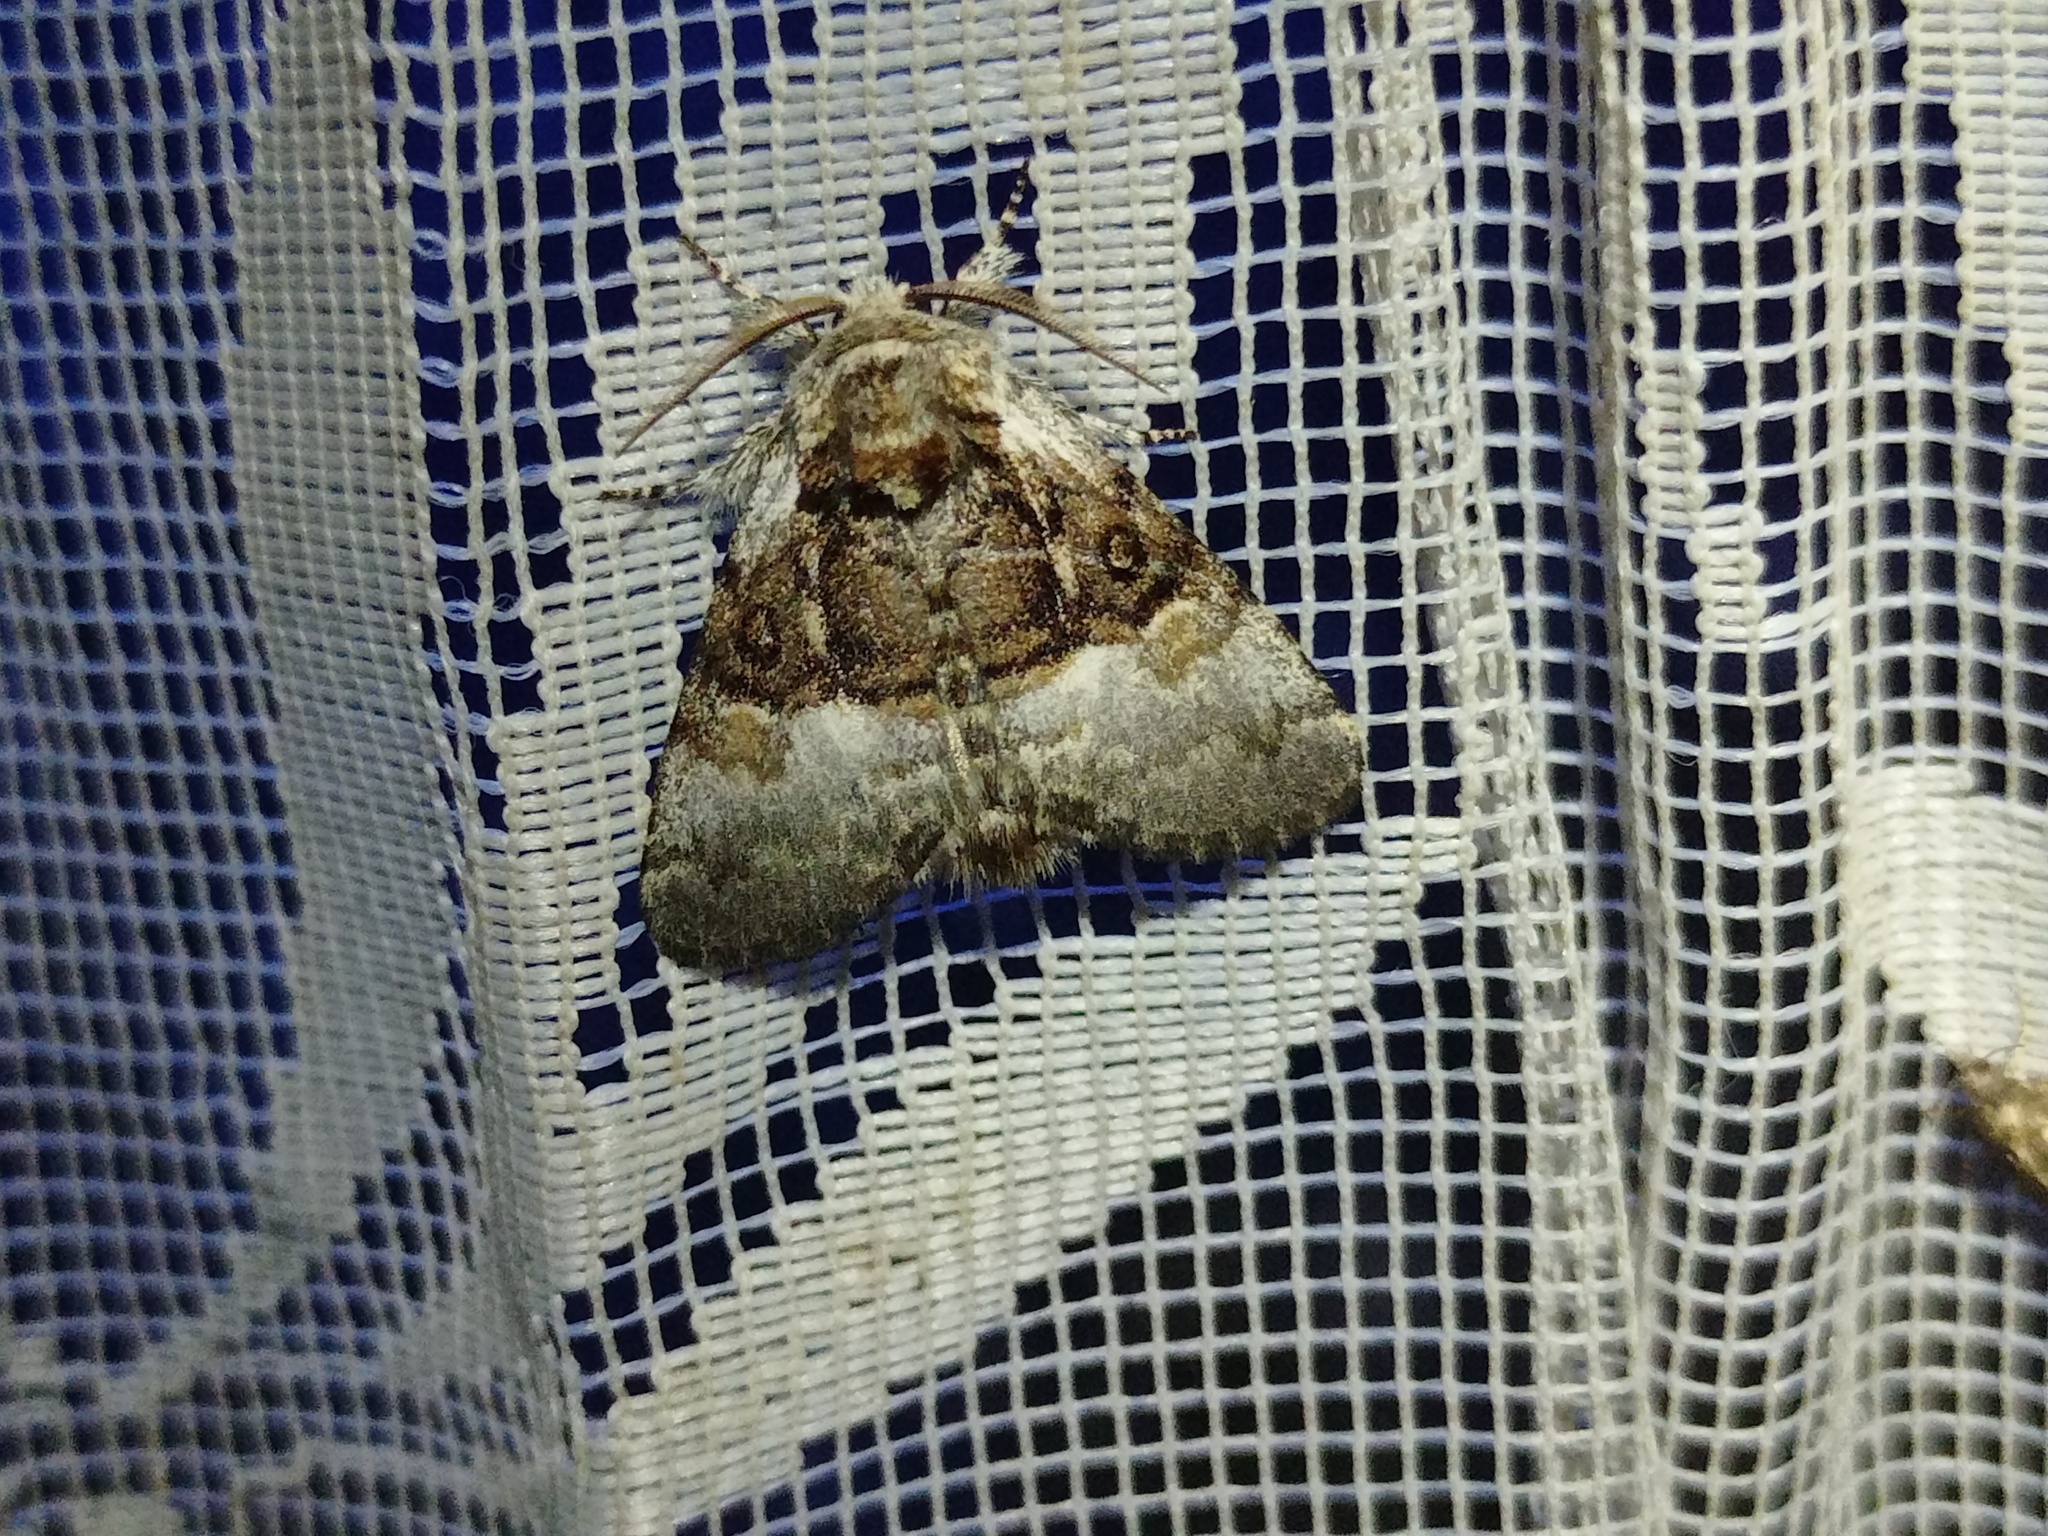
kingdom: Animalia
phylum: Arthropoda
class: Insecta
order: Lepidoptera
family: Noctuidae
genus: Colocasia
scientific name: Colocasia coryli
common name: Nut-tree tussock
